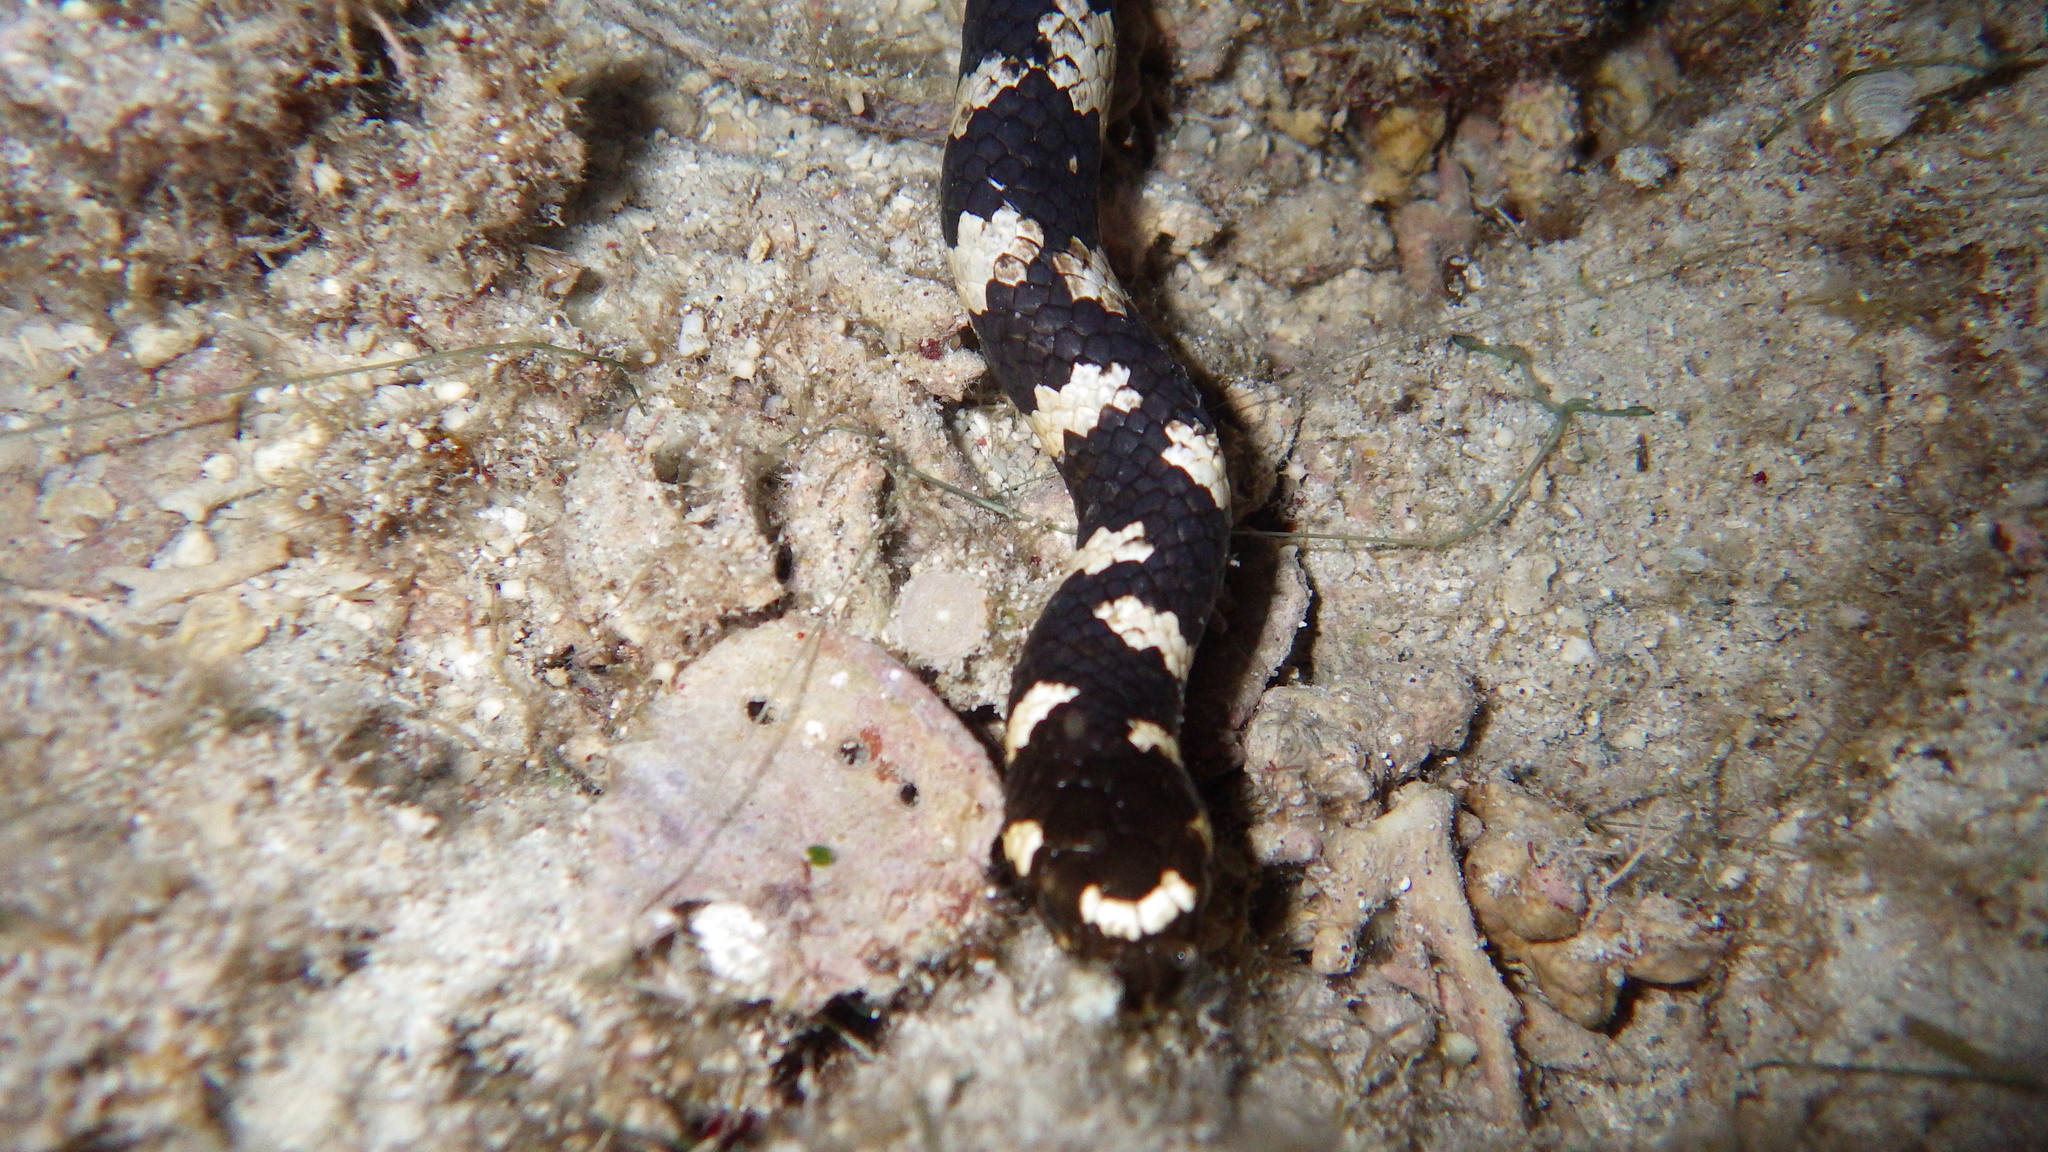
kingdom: Animalia
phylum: Chordata
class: Squamata
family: Elapidae
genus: Emydocephalus
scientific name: Emydocephalus ijimae
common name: Turtlehead sea snake
